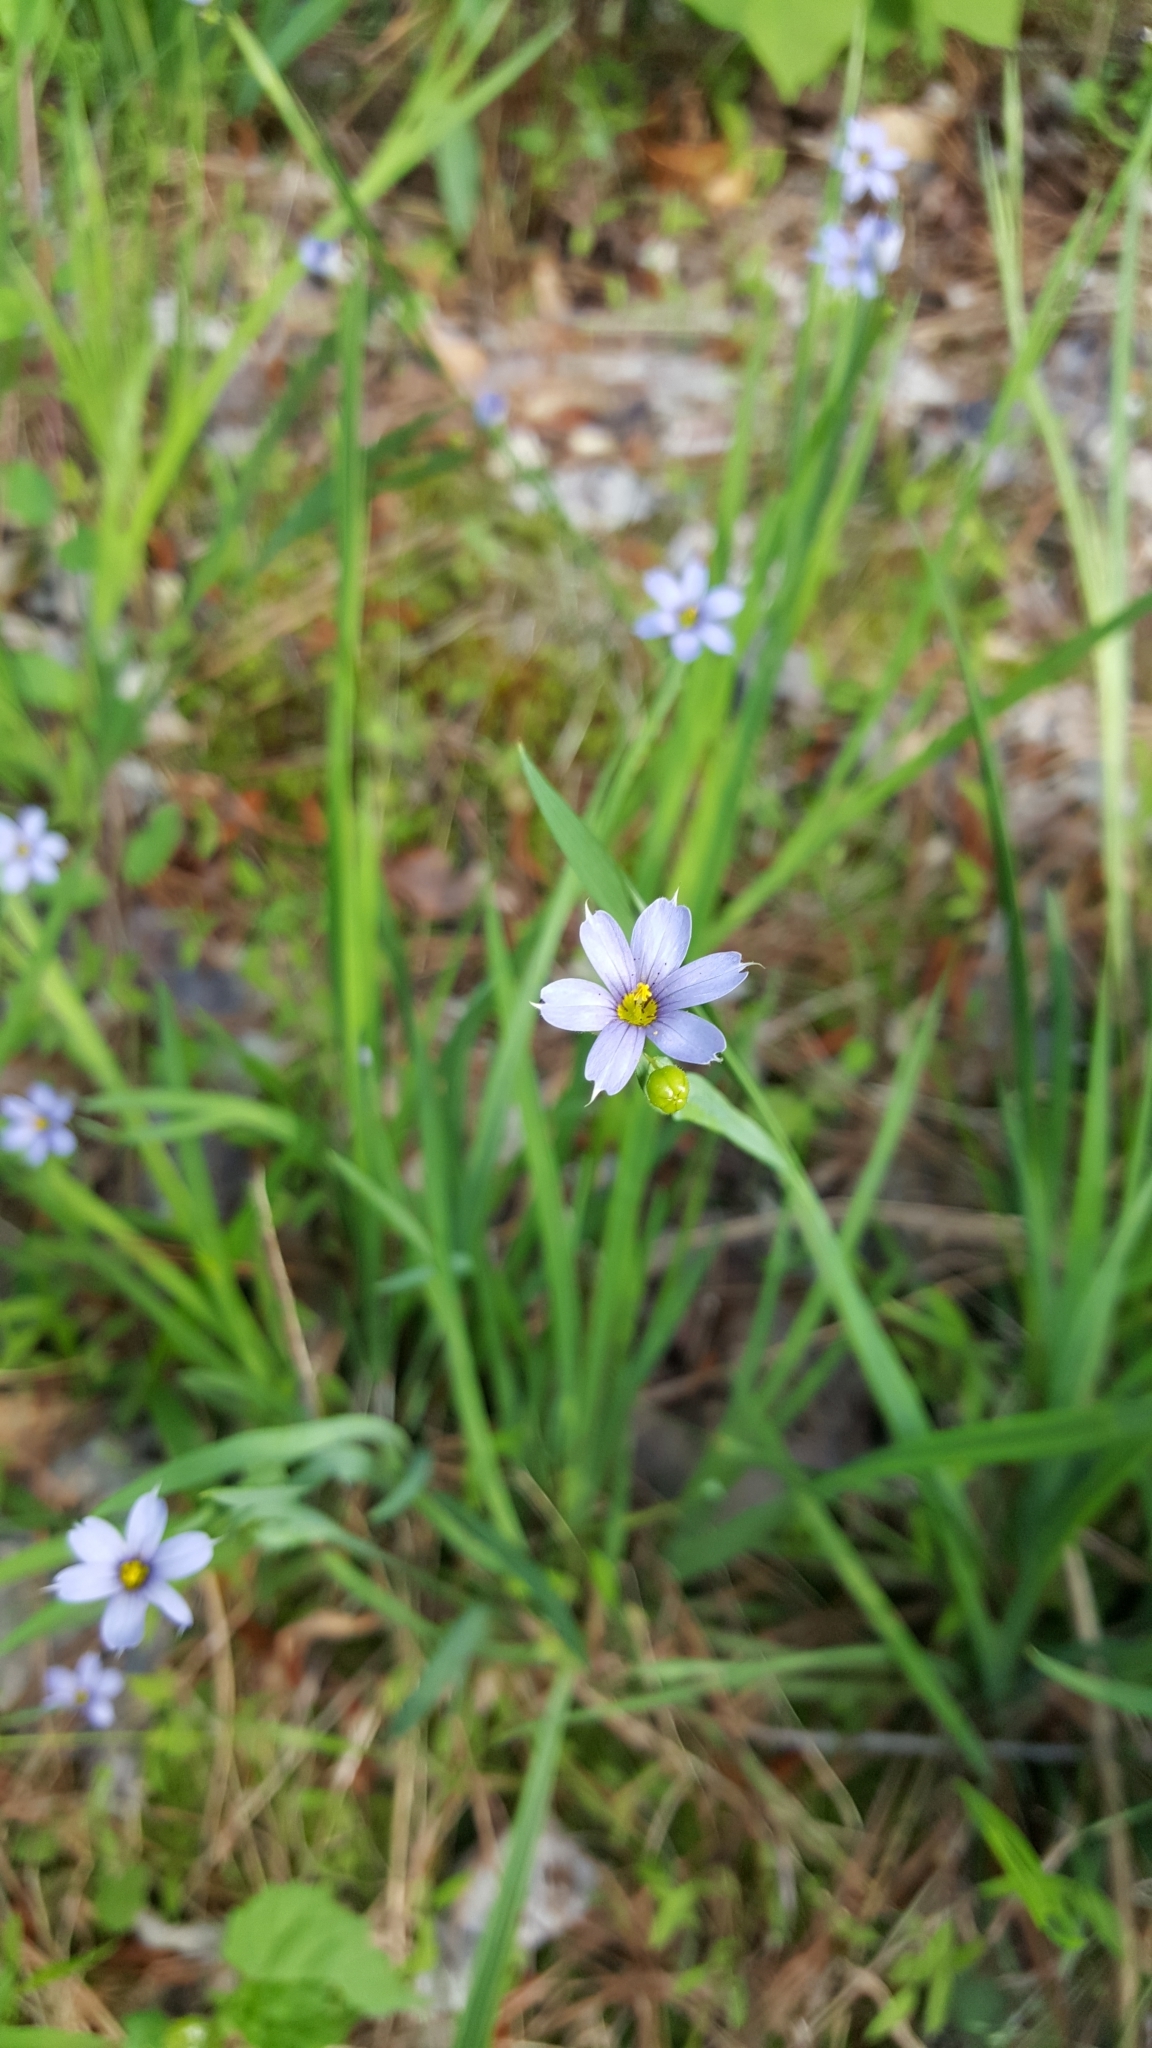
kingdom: Plantae
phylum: Tracheophyta
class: Liliopsida
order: Asparagales
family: Iridaceae
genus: Sisyrinchium
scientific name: Sisyrinchium angustifolium
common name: Narrow-leaf blue-eyed-grass
